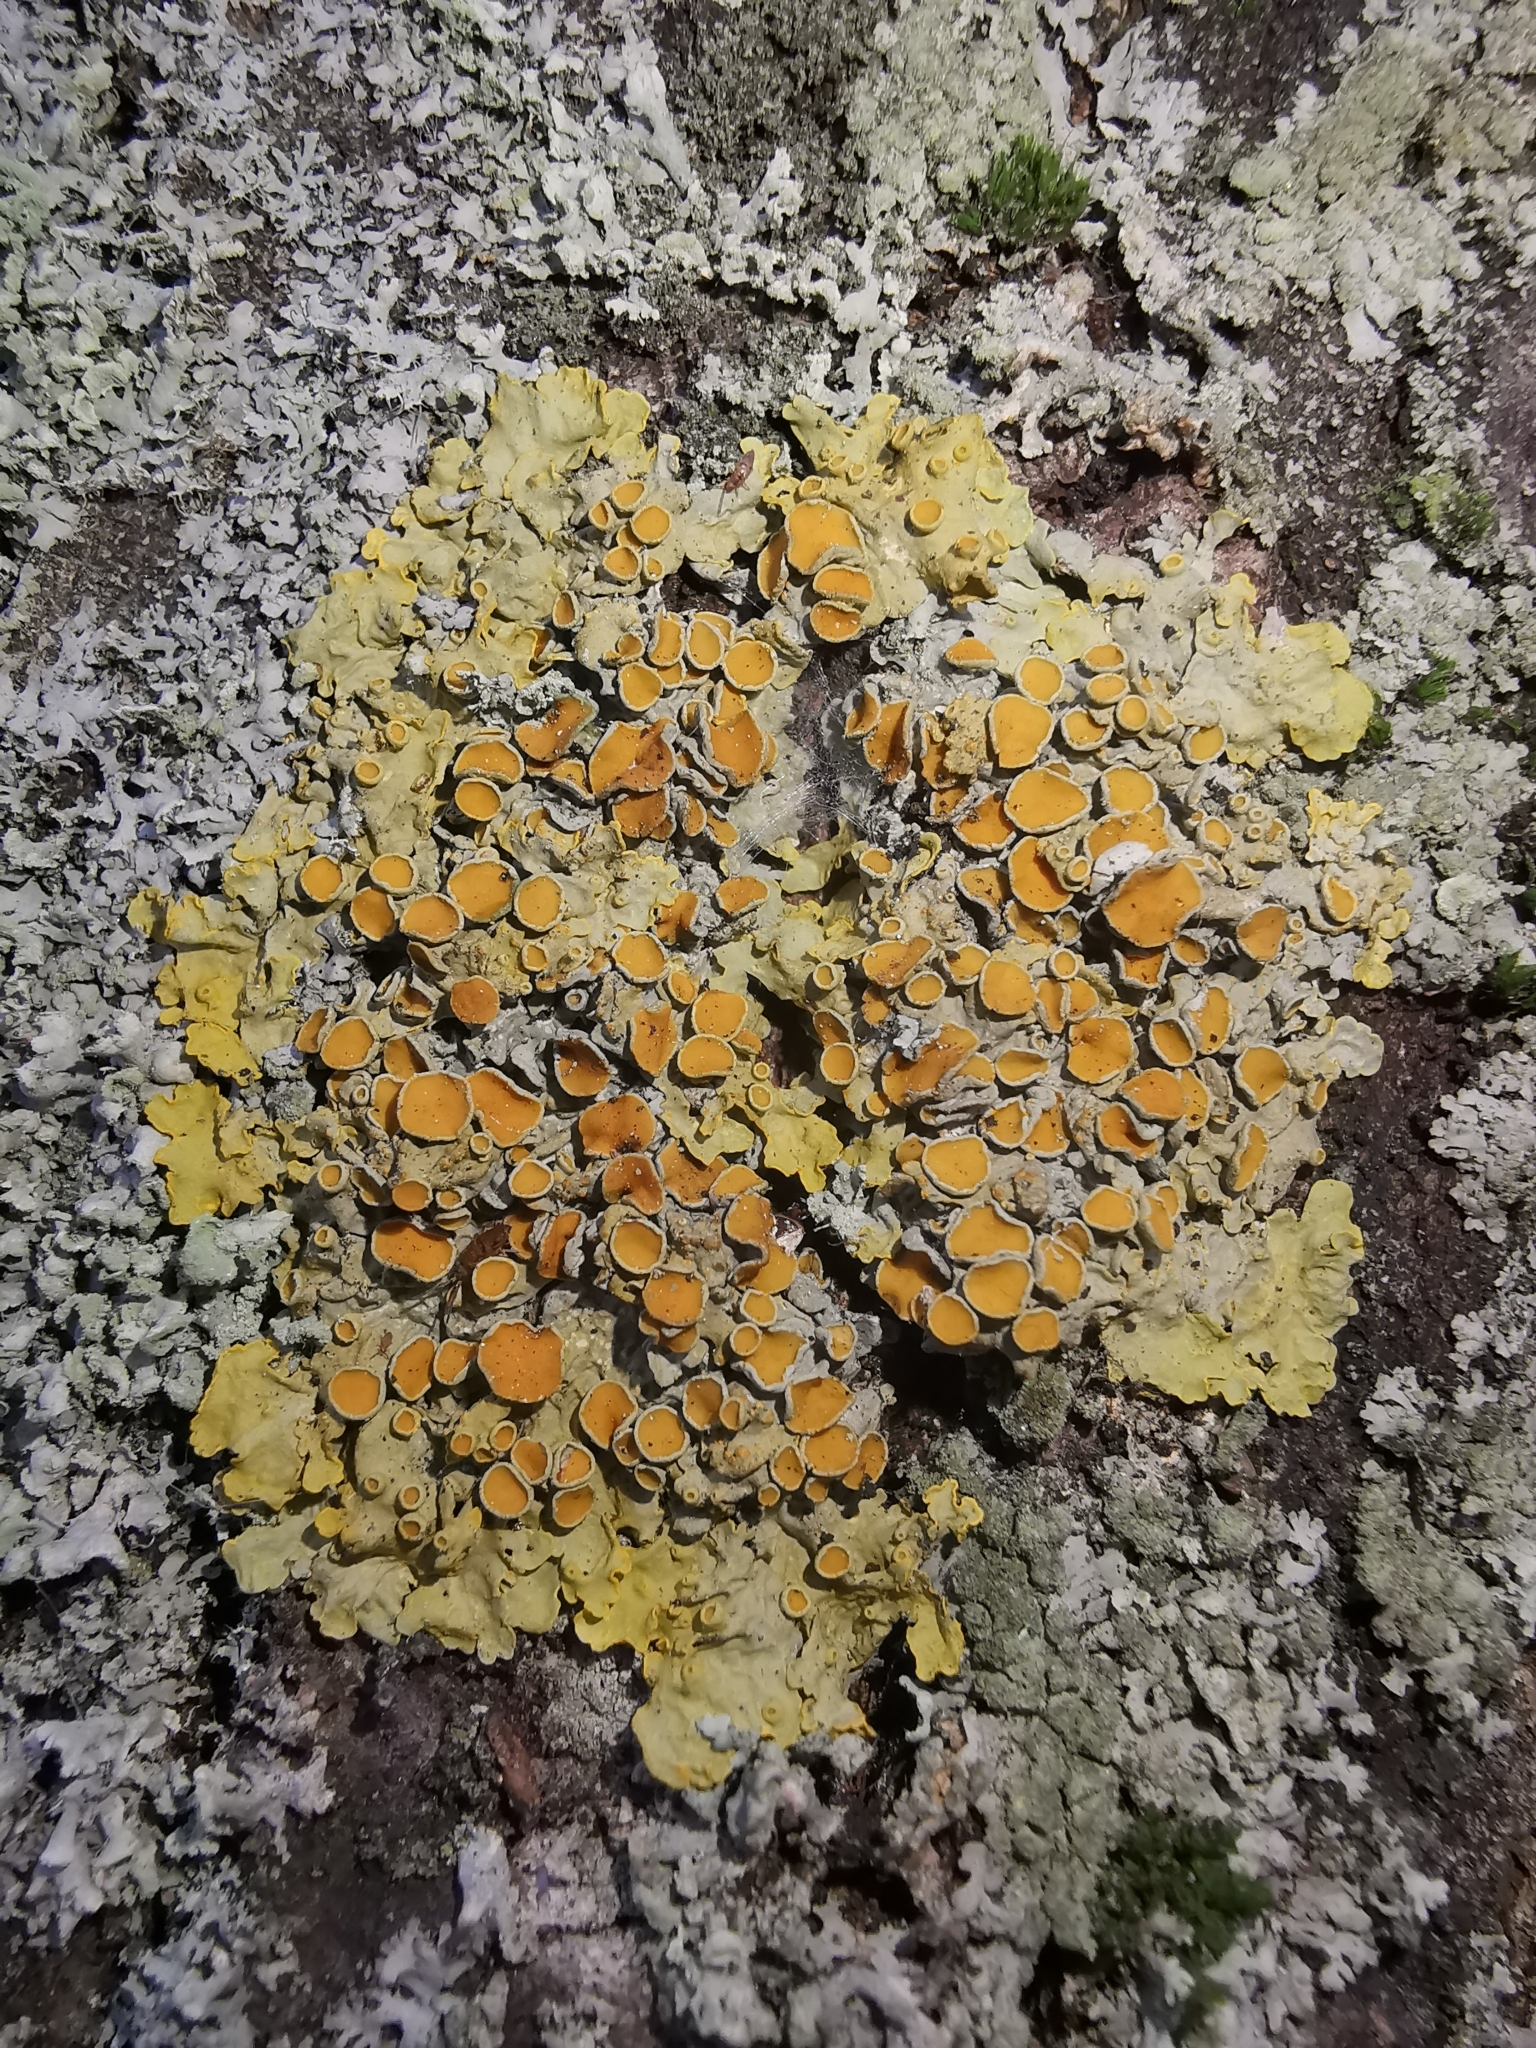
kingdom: Fungi
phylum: Ascomycota
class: Lecanoromycetes
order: Teloschistales
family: Teloschistaceae
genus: Xanthoria
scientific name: Xanthoria parietina
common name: Common orange lichen
